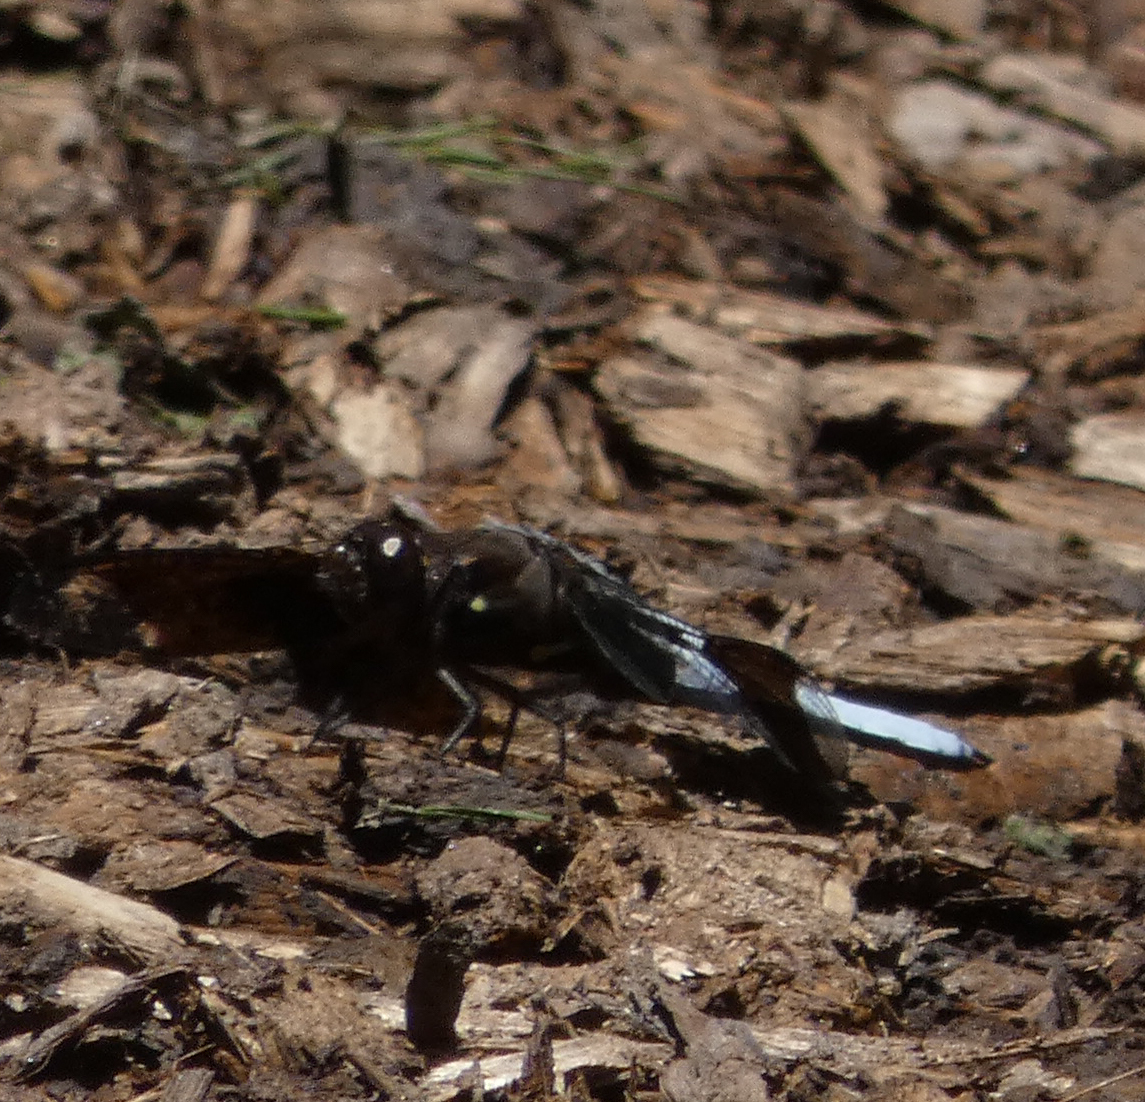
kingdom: Animalia
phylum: Arthropoda
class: Insecta
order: Odonata
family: Libellulidae
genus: Plathemis
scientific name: Plathemis lydia
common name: Common whitetail
